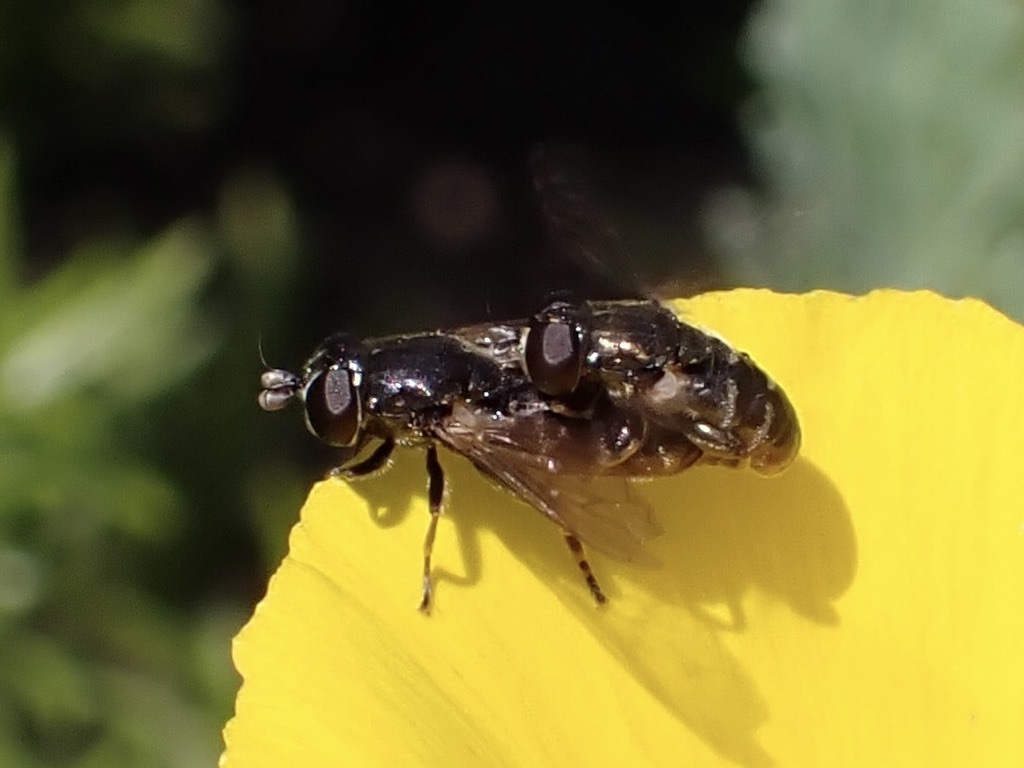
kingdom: Animalia
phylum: Arthropoda
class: Insecta
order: Diptera
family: Syrphidae
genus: Eumerus
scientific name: Eumerus
